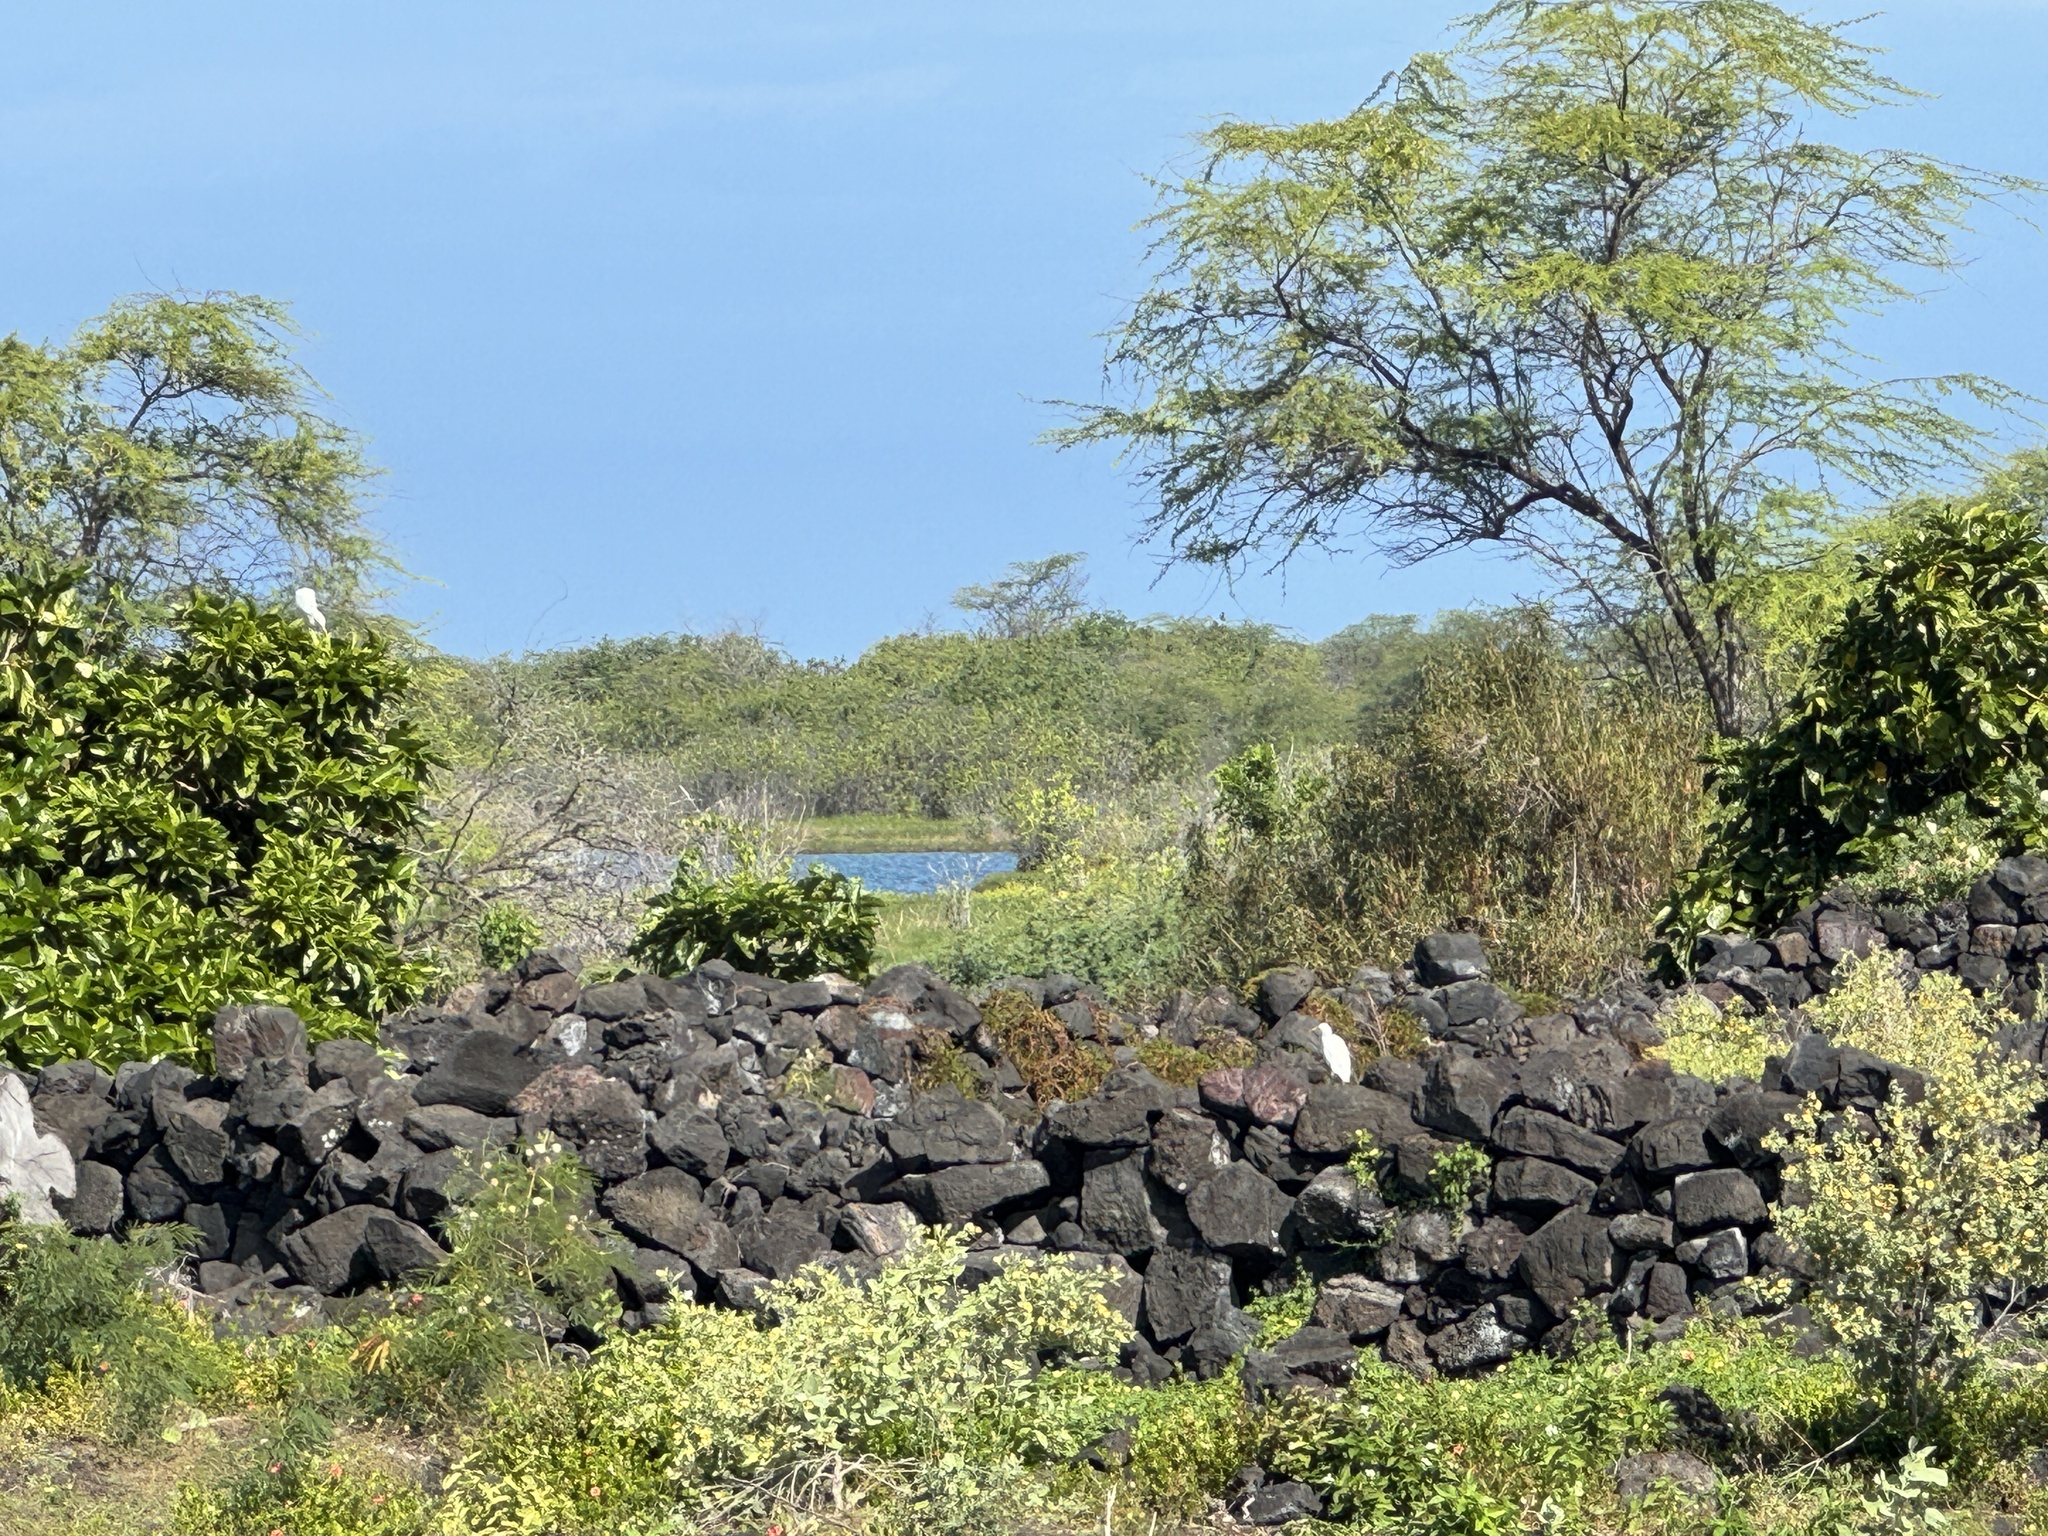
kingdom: Animalia
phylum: Chordata
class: Aves
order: Pelecaniformes
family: Ardeidae
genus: Bubulcus
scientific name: Bubulcus ibis
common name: Cattle egret
